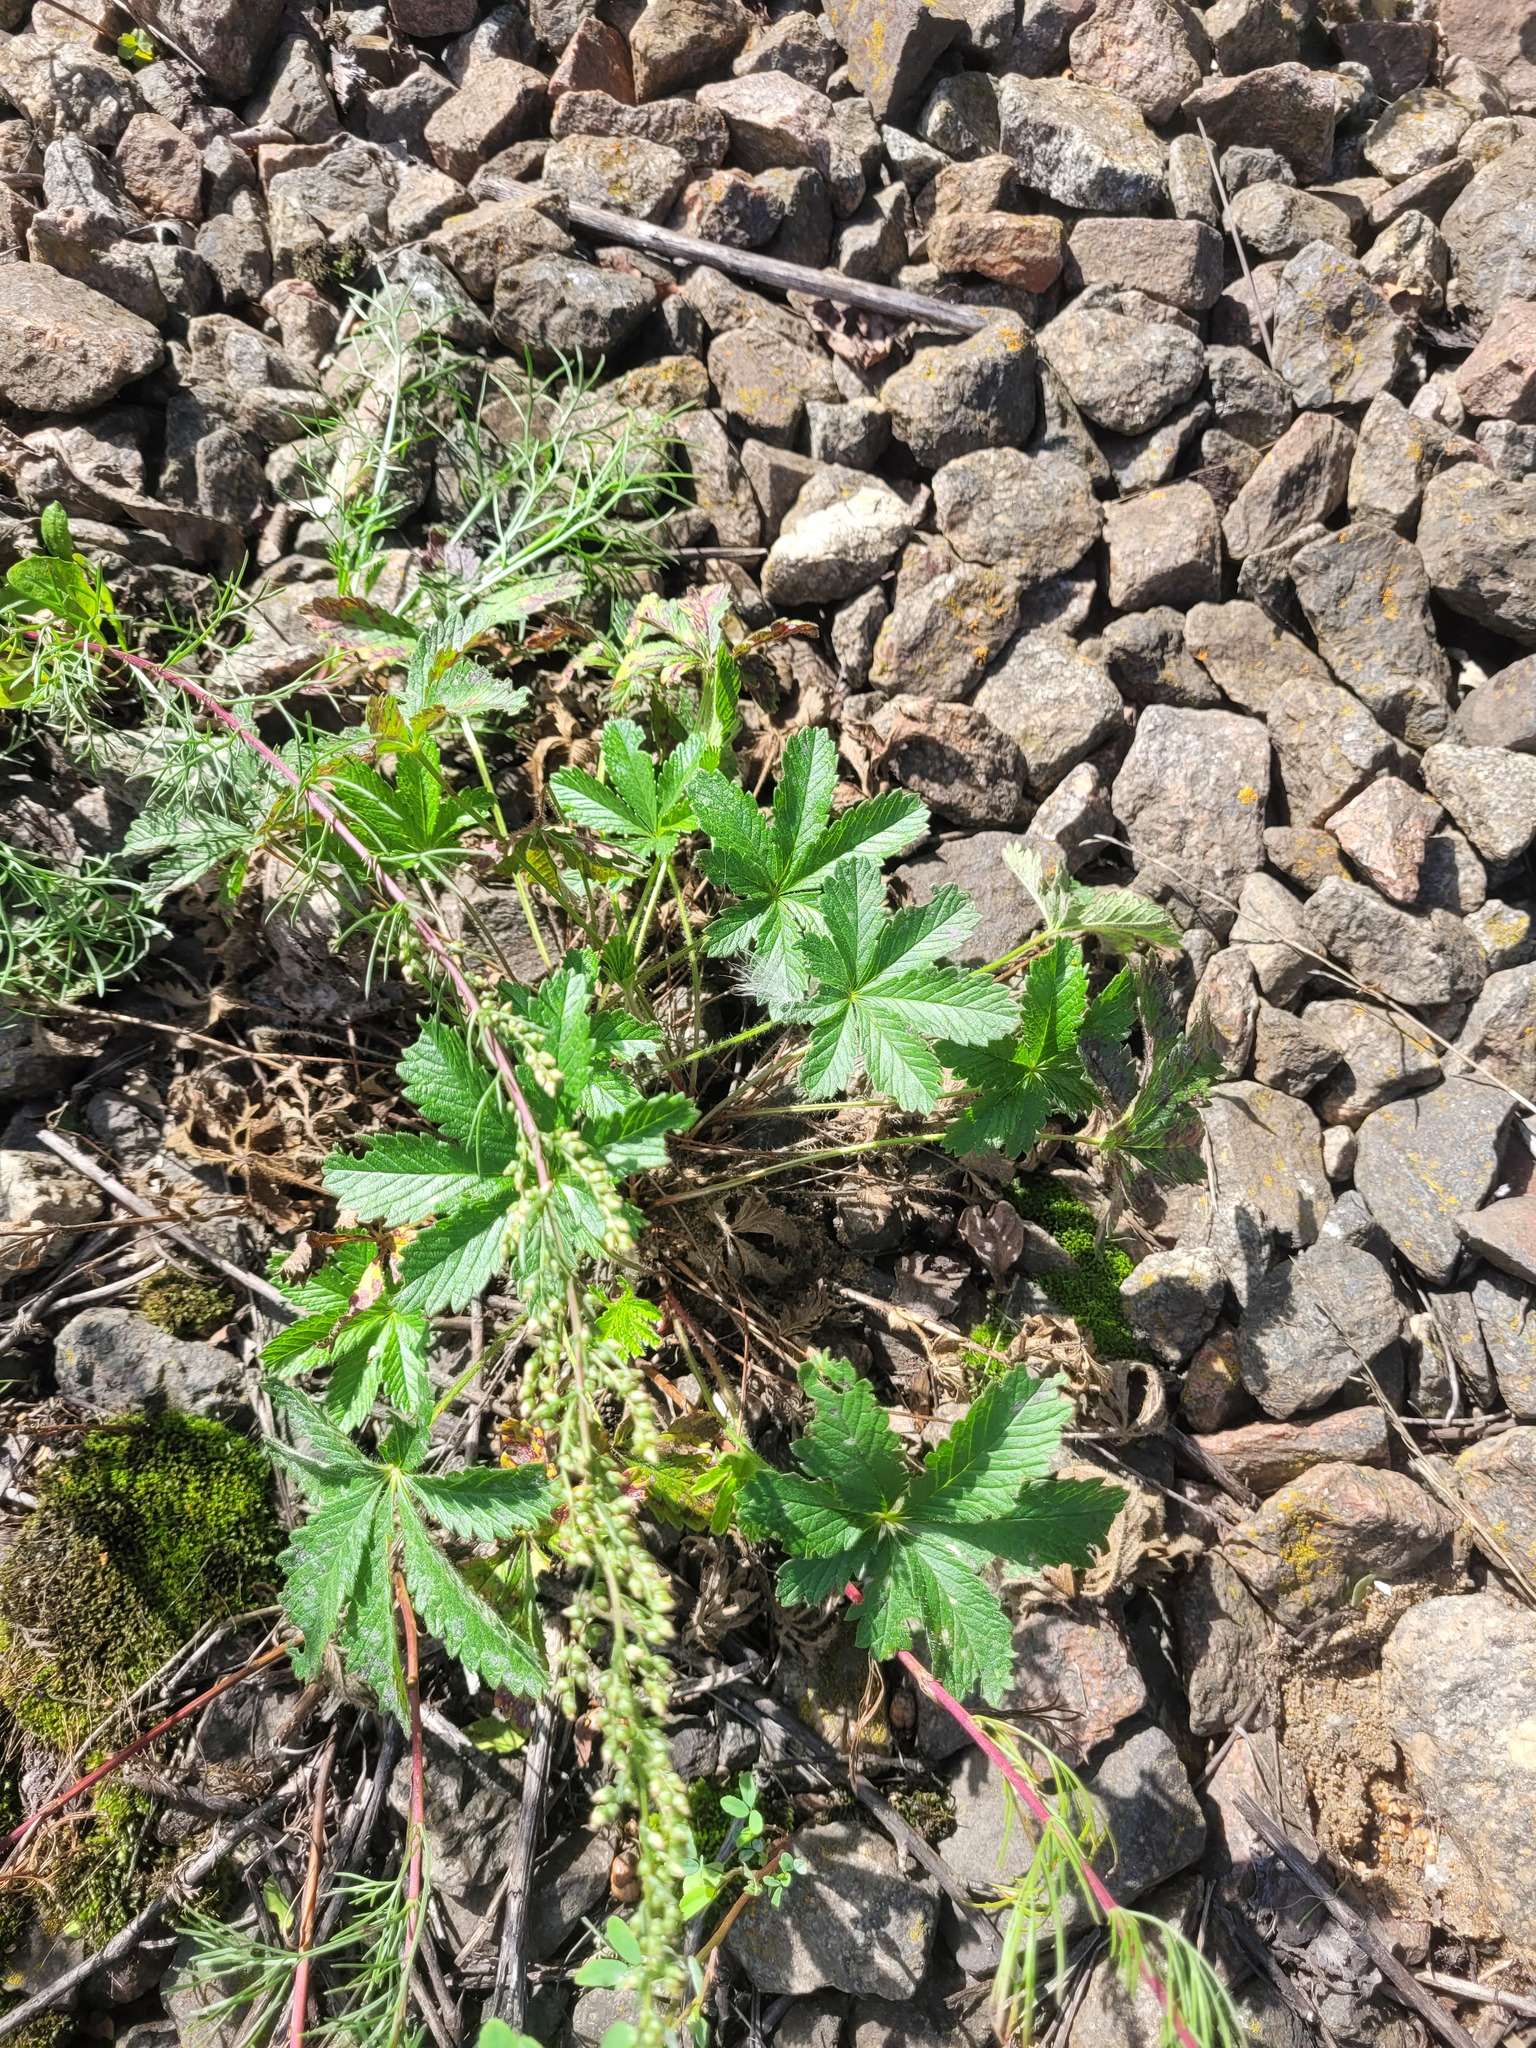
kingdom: Plantae
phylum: Tracheophyta
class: Magnoliopsida
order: Rosales
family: Rosaceae
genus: Potentilla
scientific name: Potentilla thuringiaca
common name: European cinquefoil
